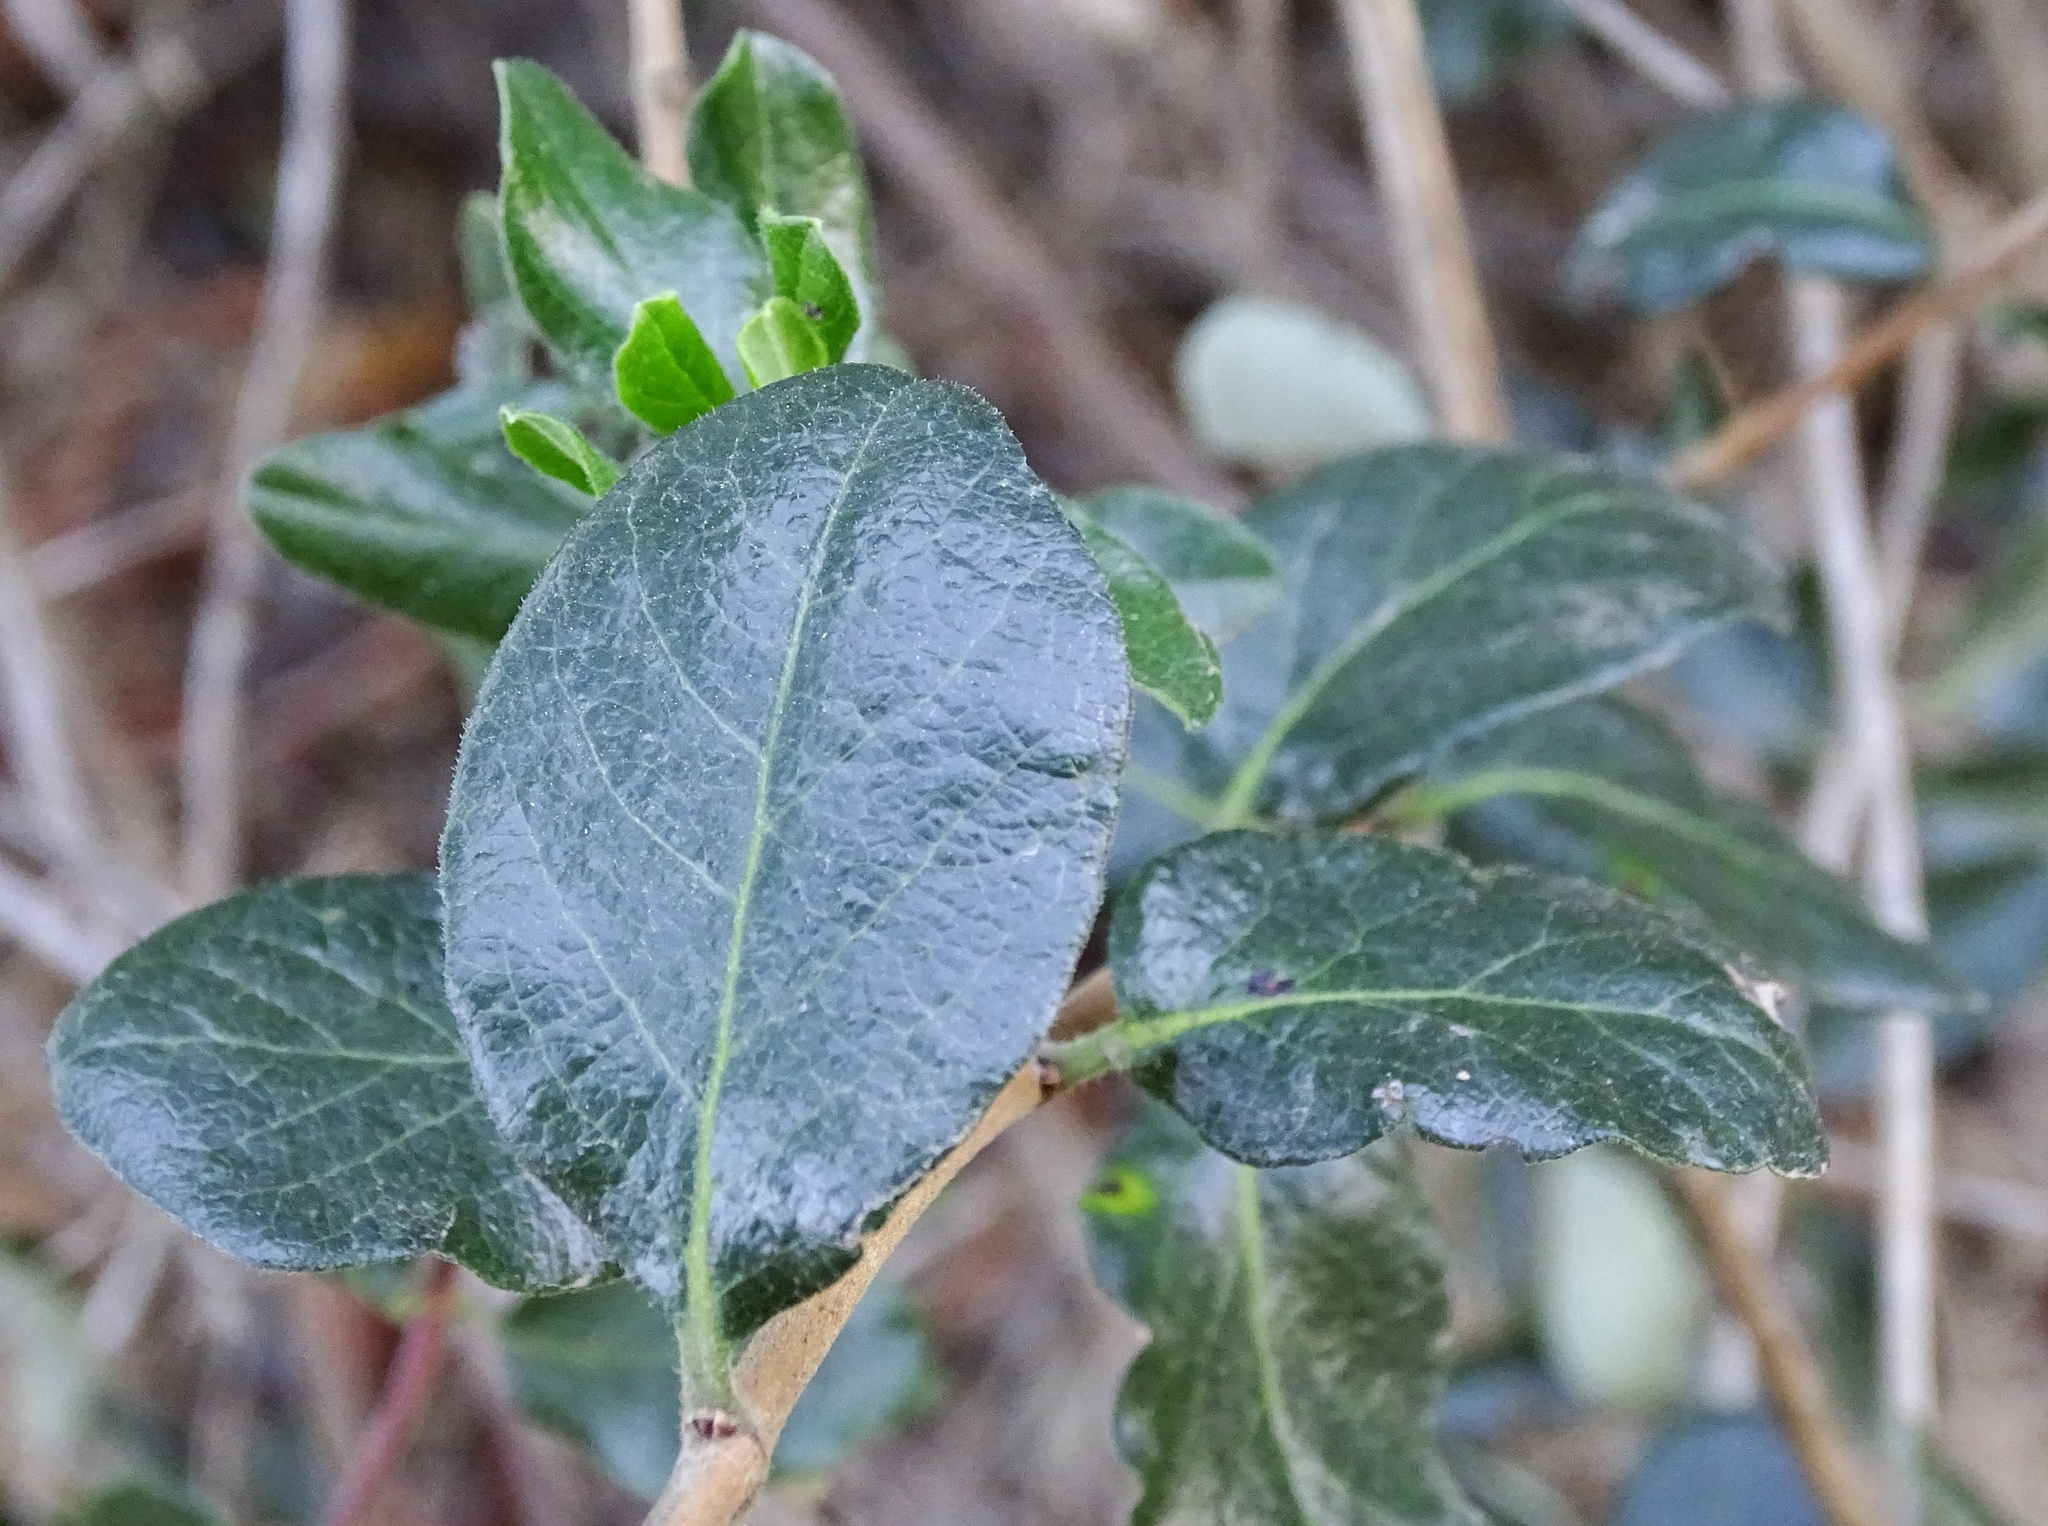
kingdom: Plantae
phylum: Tracheophyta
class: Magnoliopsida
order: Dipsacales
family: Caprifoliaceae
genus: Lonicera
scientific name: Lonicera subspicata
